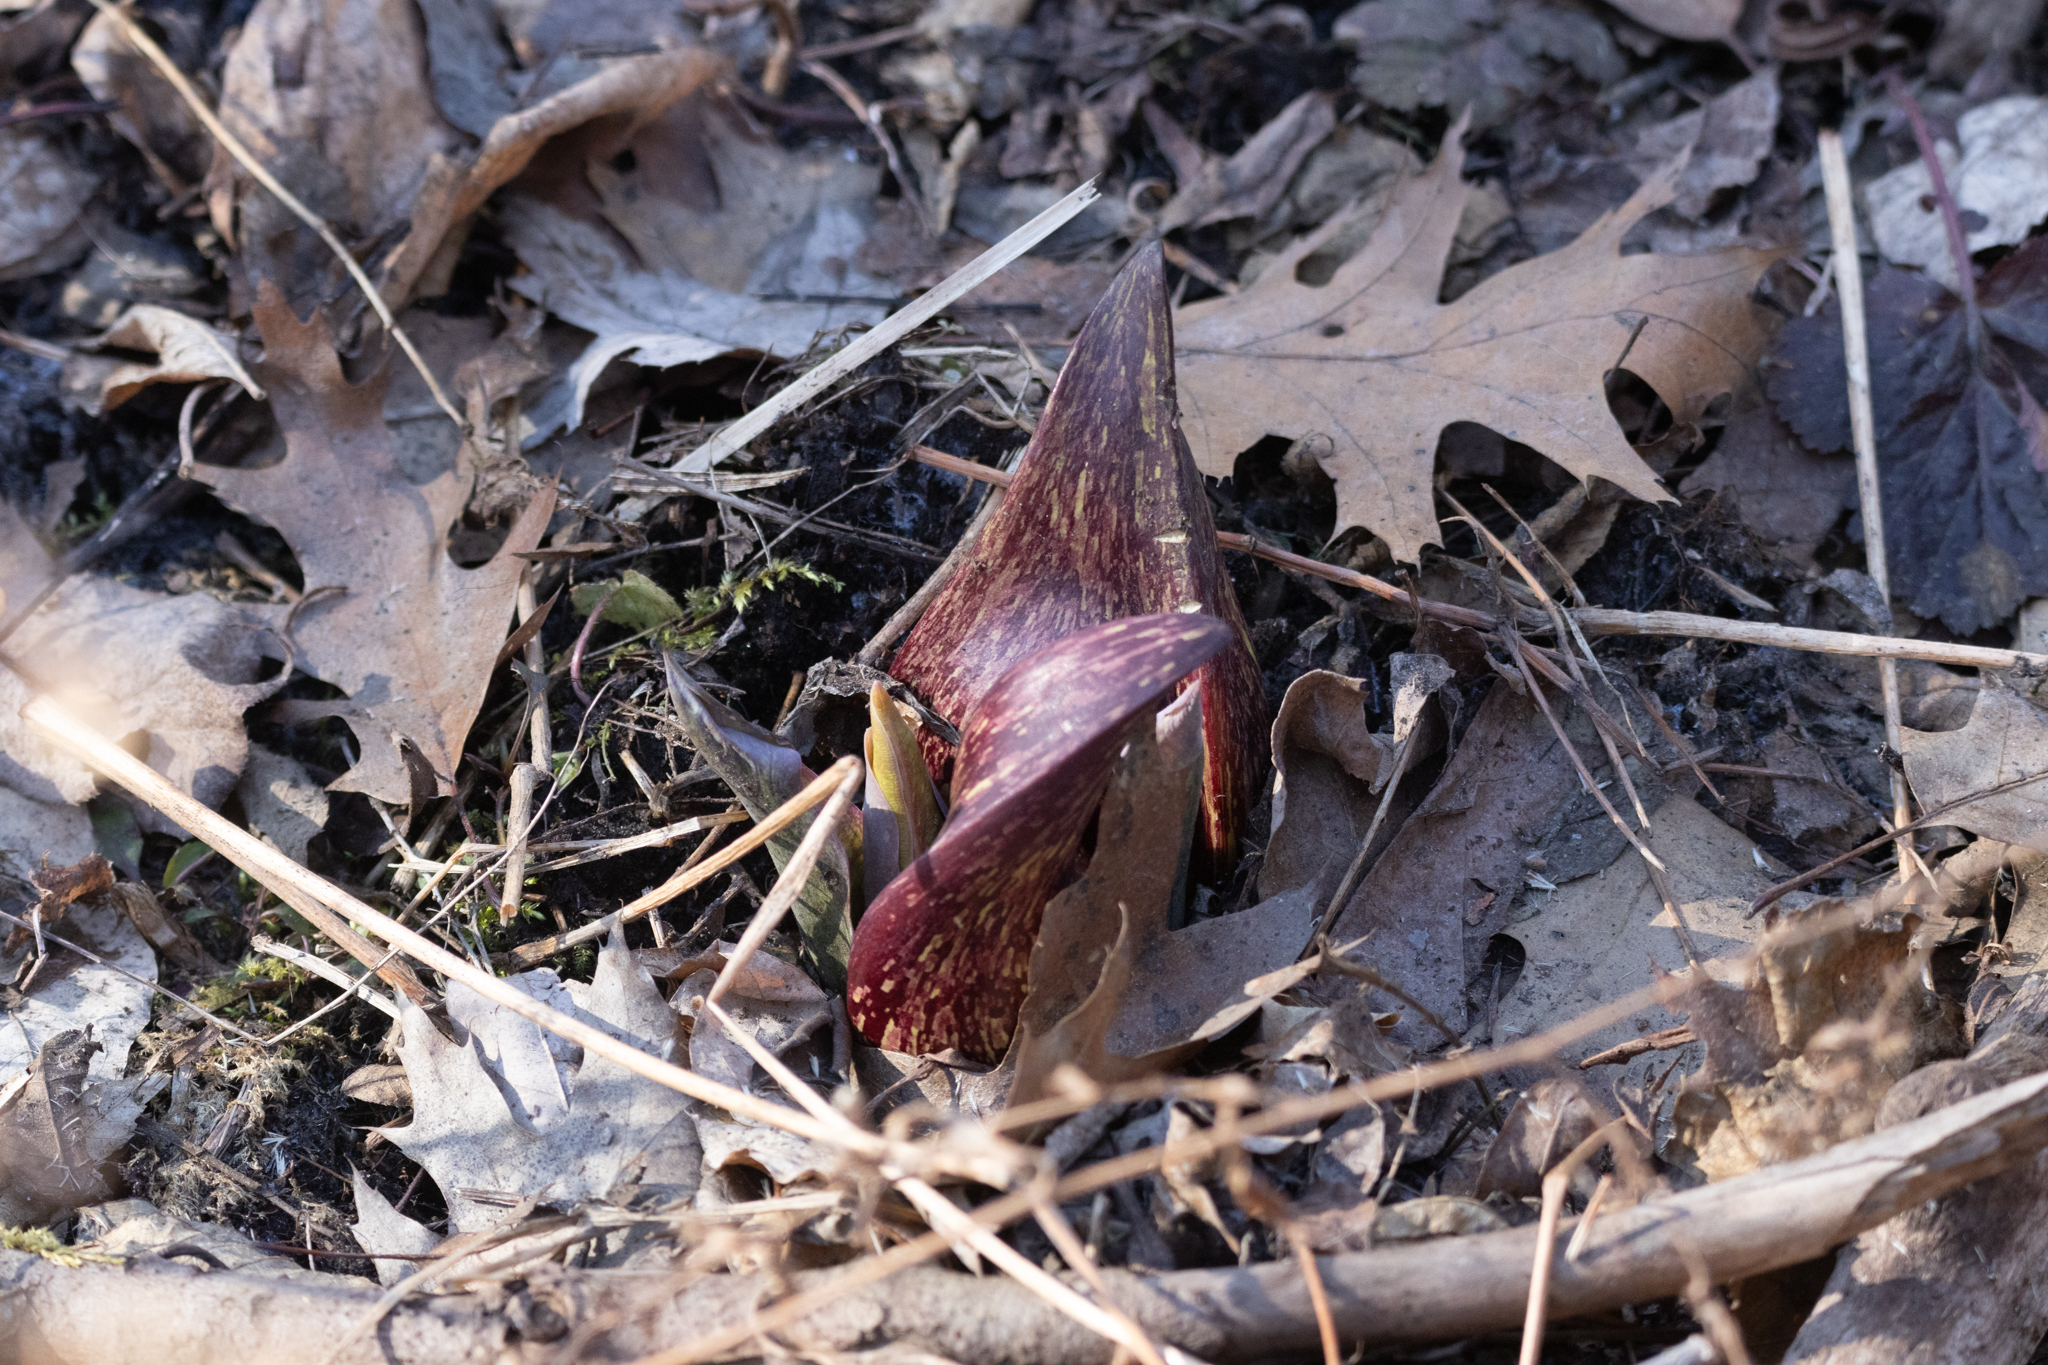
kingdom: Plantae
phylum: Tracheophyta
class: Liliopsida
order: Alismatales
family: Araceae
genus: Symplocarpus
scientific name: Symplocarpus foetidus
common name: Eastern skunk cabbage
